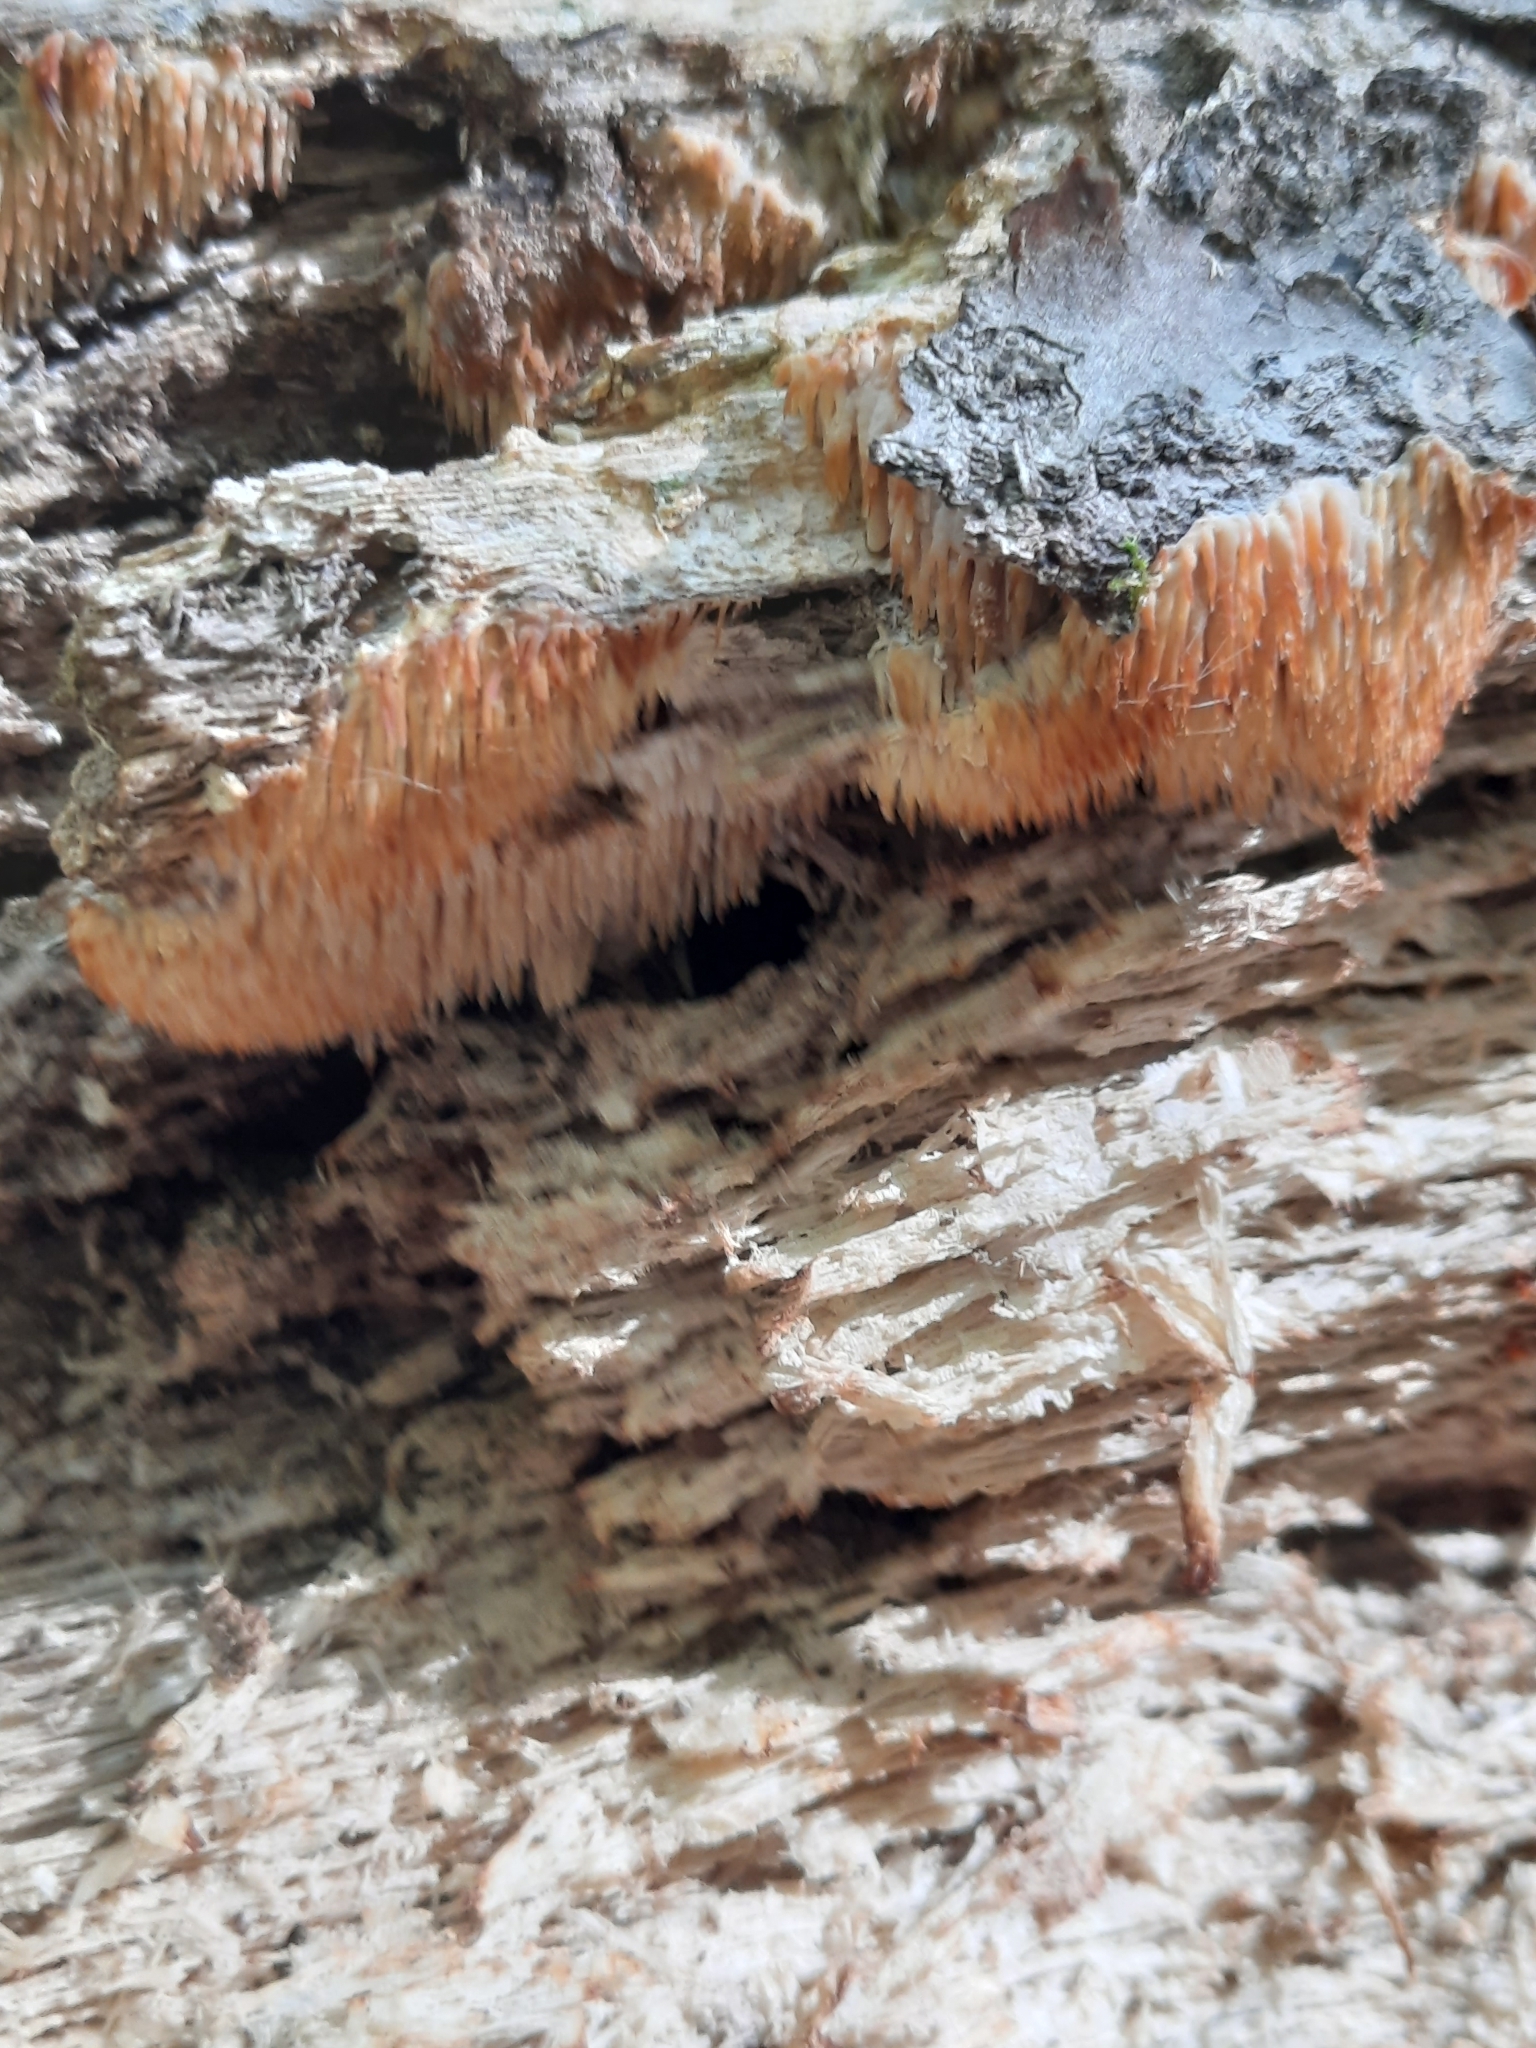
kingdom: Fungi
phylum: Basidiomycota
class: Agaricomycetes
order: Agaricales
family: Radulomycetaceae
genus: Radulomyces
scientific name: Radulomyces copelandii
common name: Asian beauty
